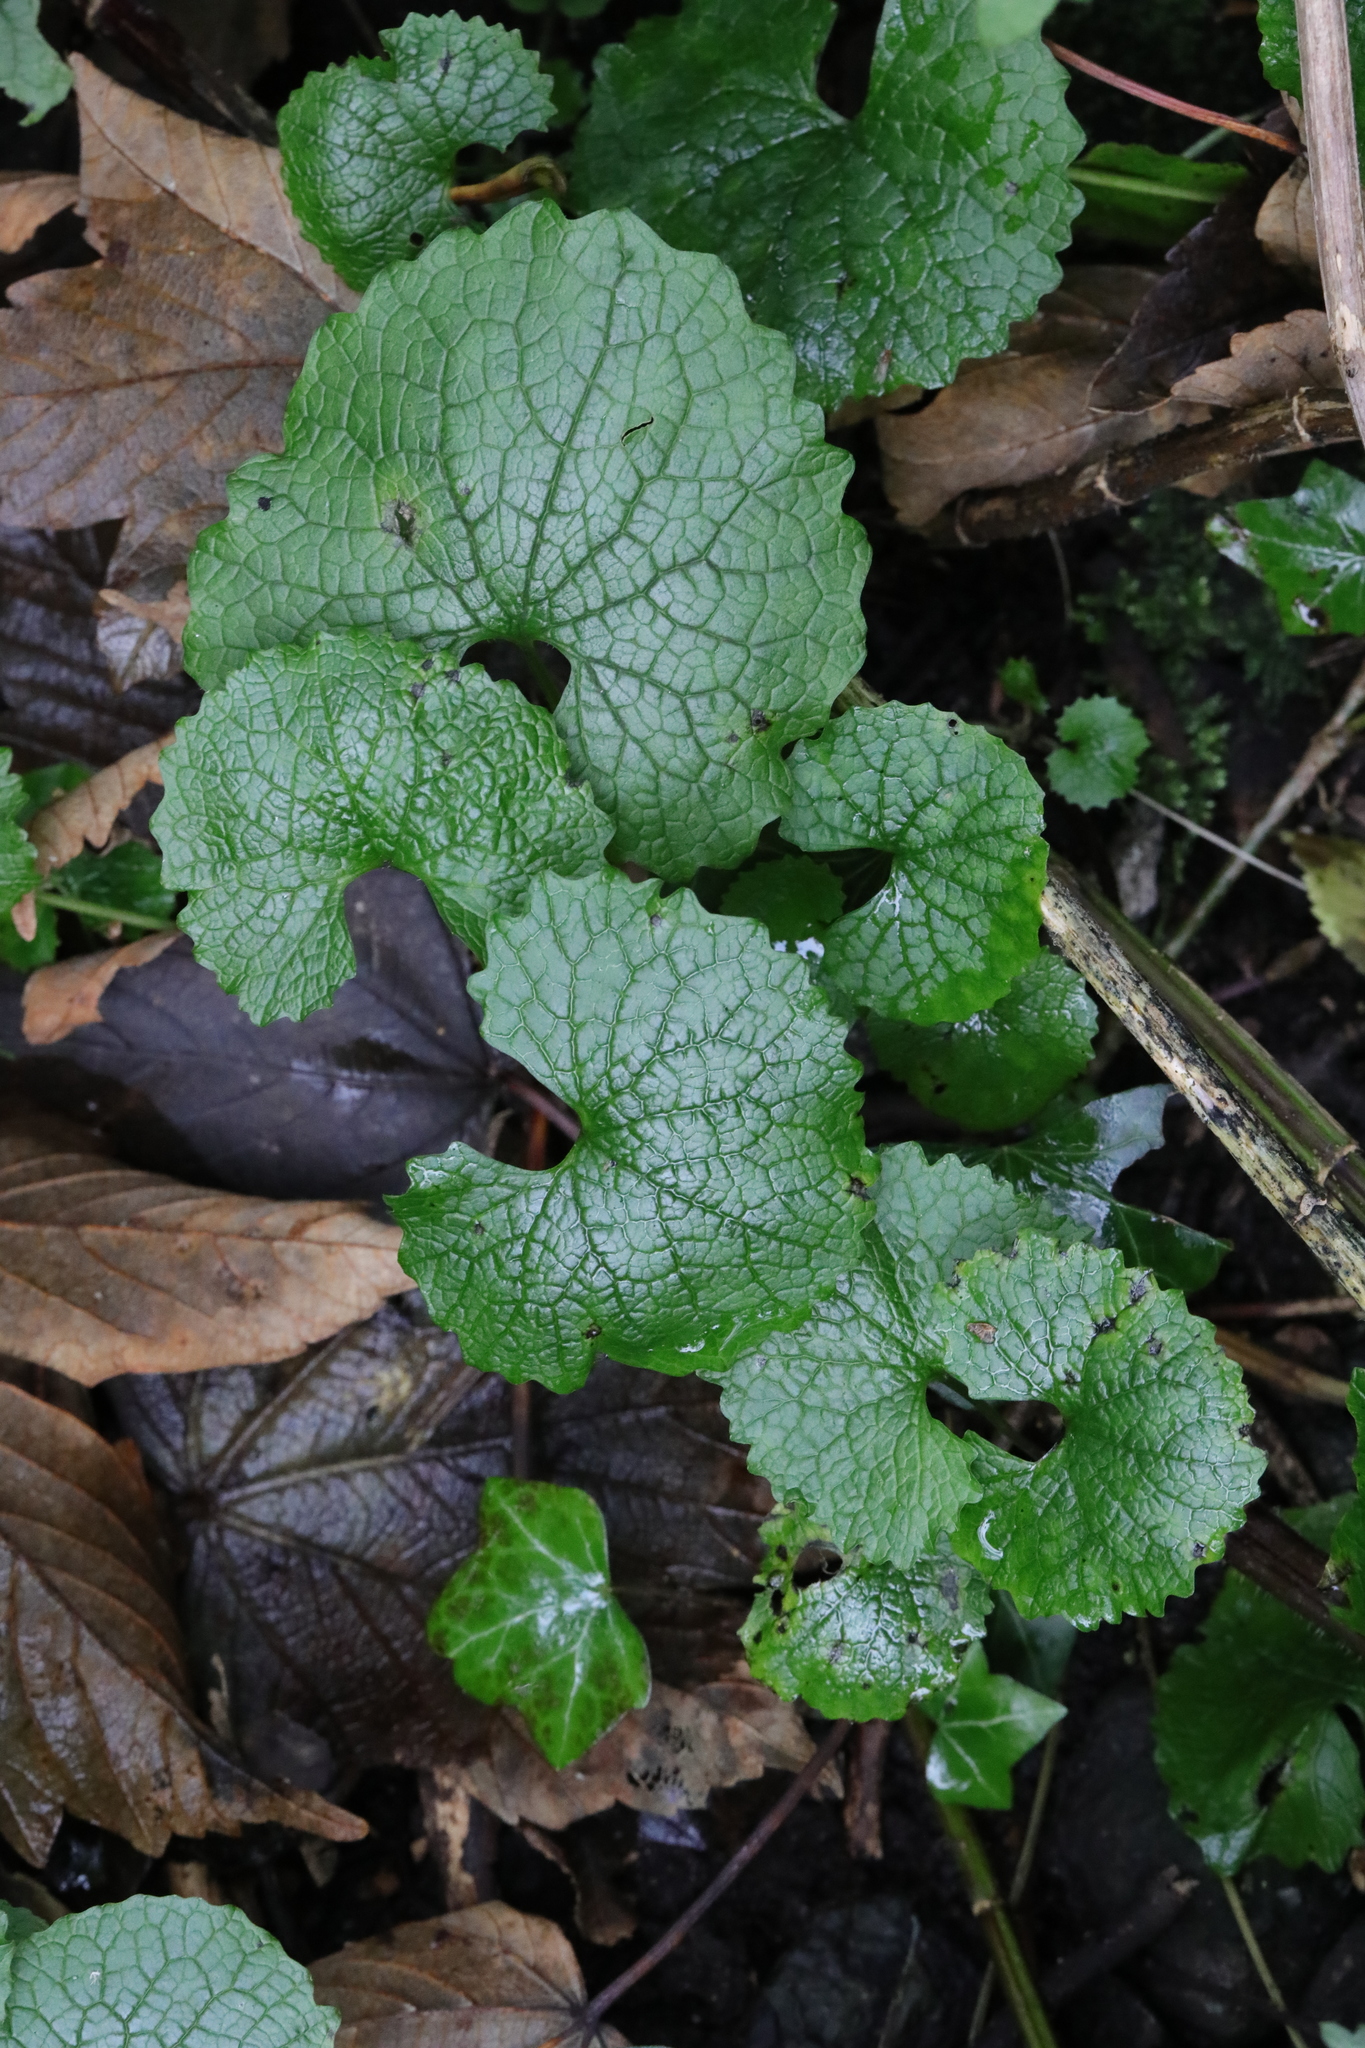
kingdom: Plantae
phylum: Tracheophyta
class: Magnoliopsida
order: Brassicales
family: Brassicaceae
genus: Alliaria
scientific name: Alliaria petiolata
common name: Garlic mustard
